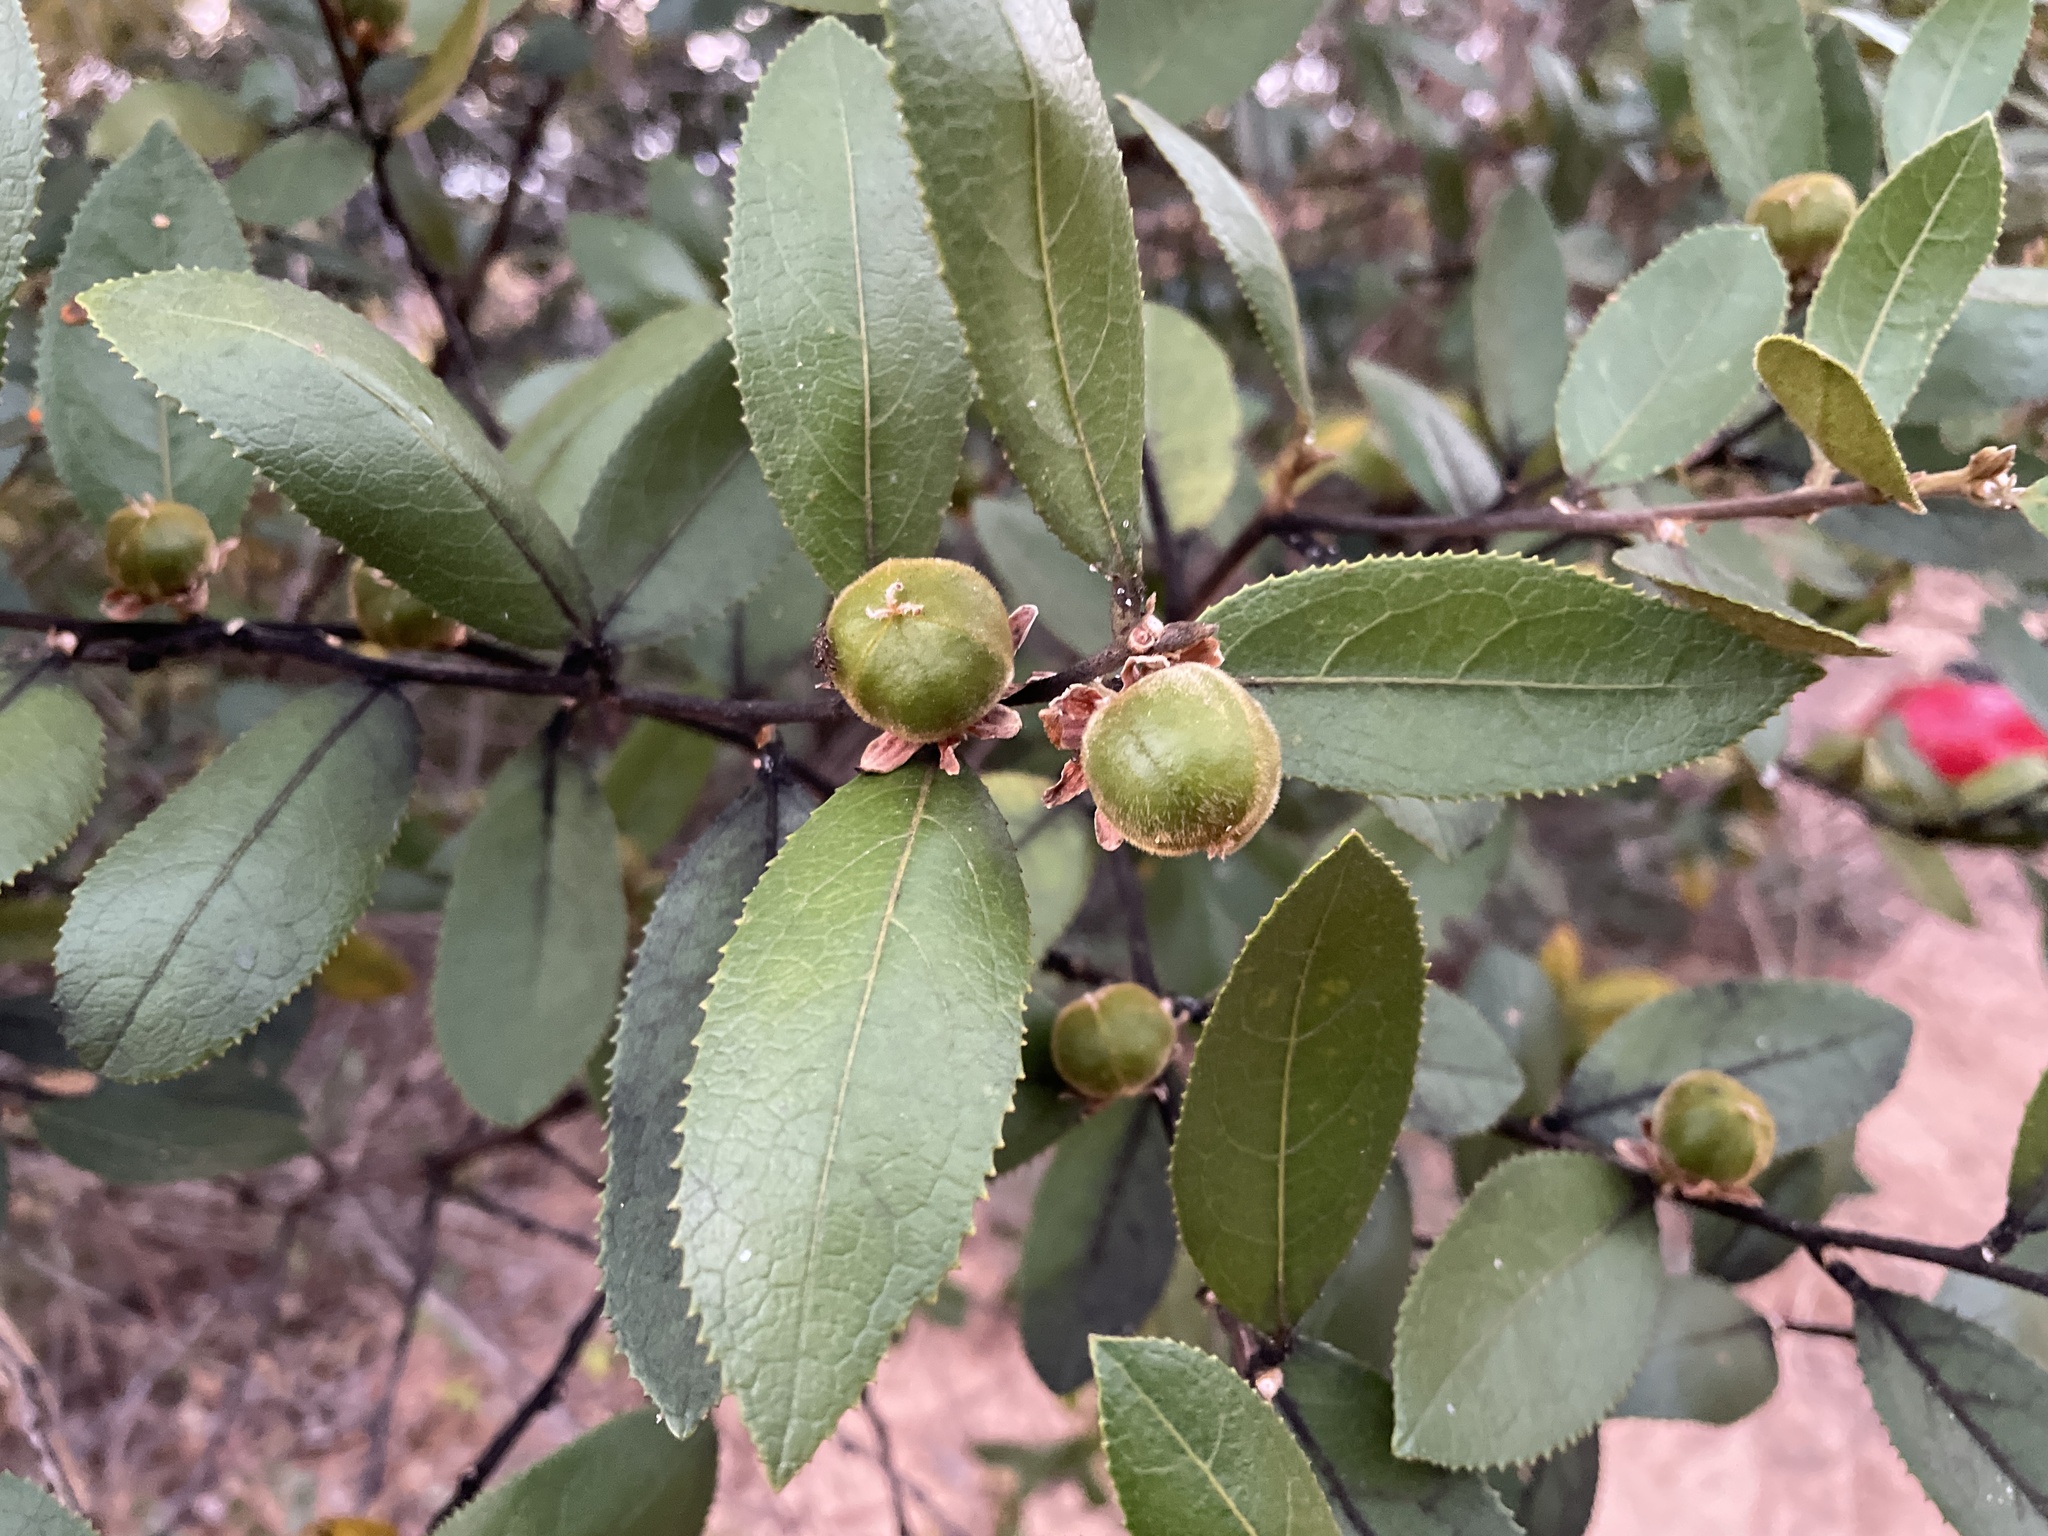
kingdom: Plantae
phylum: Tracheophyta
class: Magnoliopsida
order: Malpighiales
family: Passifloraceae
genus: Paropsia
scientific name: Paropsia brazzaeana
